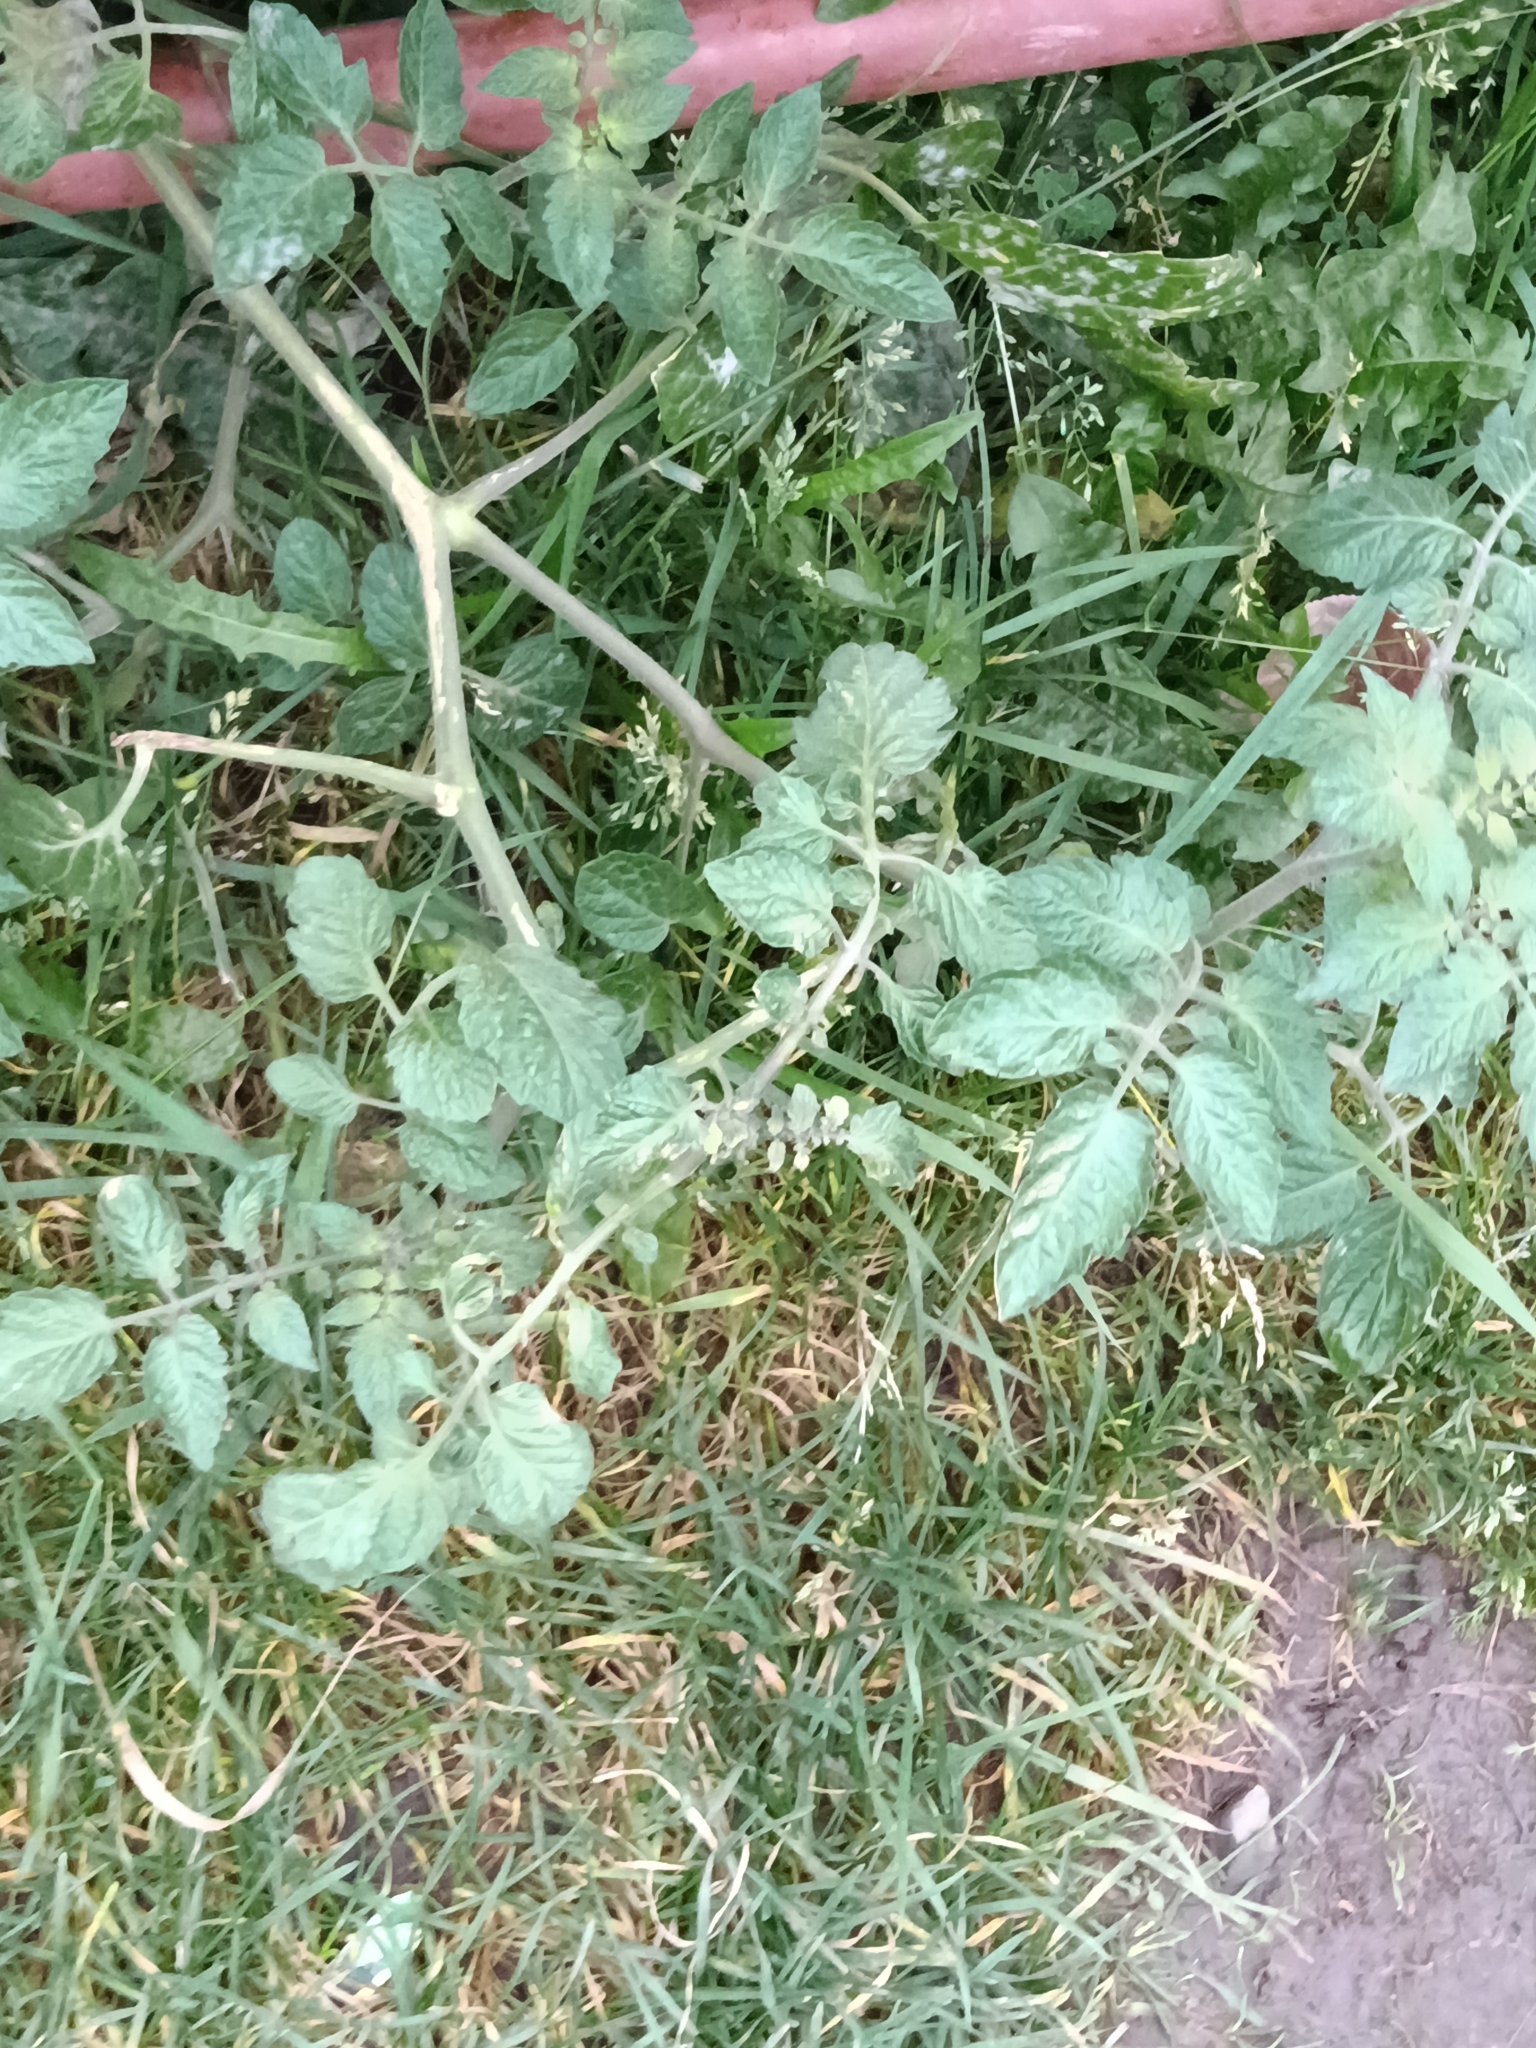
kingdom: Plantae
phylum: Tracheophyta
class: Magnoliopsida
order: Solanales
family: Solanaceae
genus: Solanum
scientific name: Solanum lycopersicum
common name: Garden tomato
